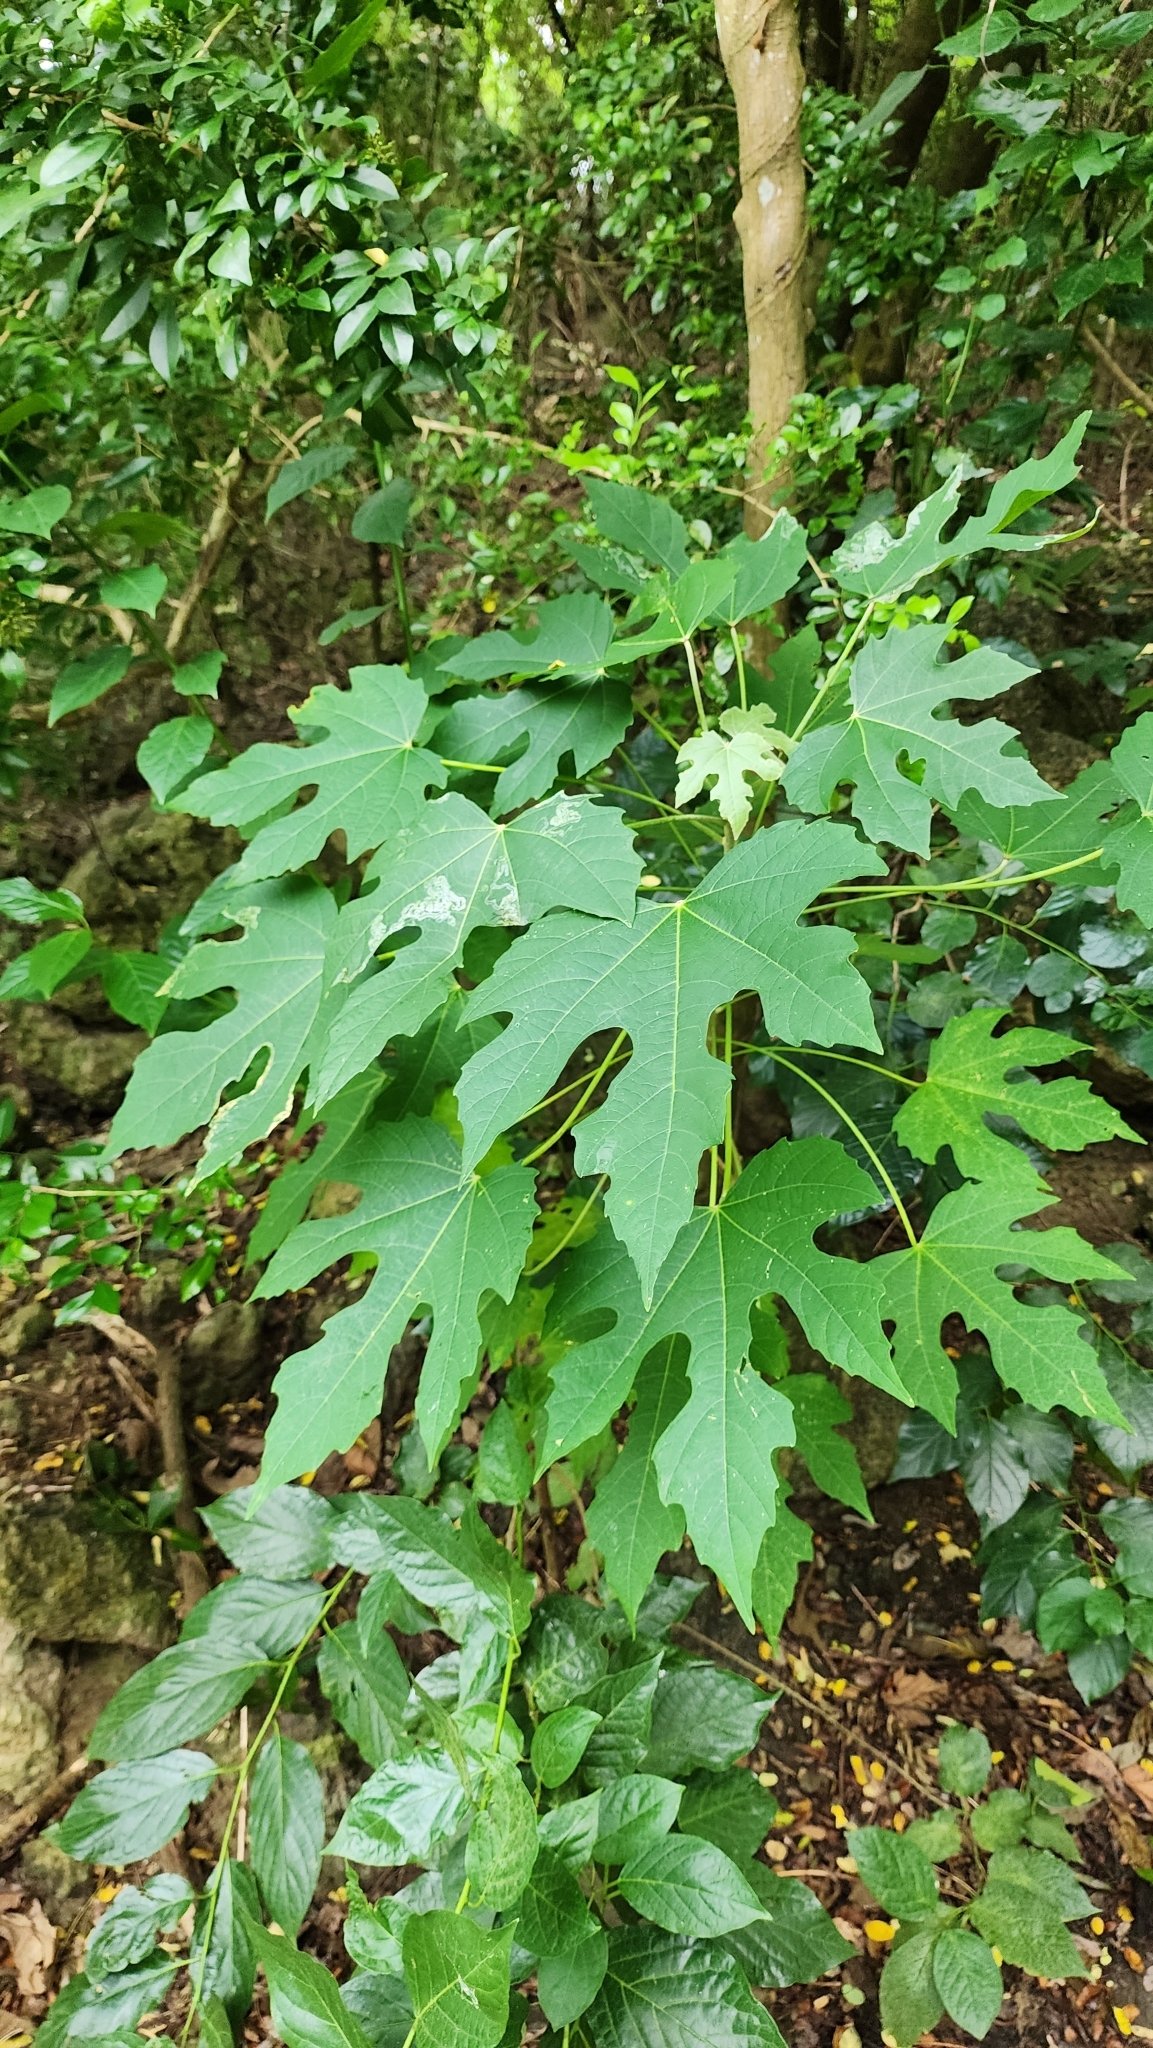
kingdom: Plantae
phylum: Tracheophyta
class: Magnoliopsida
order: Malpighiales
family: Euphorbiaceae
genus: Melanolepis
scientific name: Melanolepis multiglandulosa
